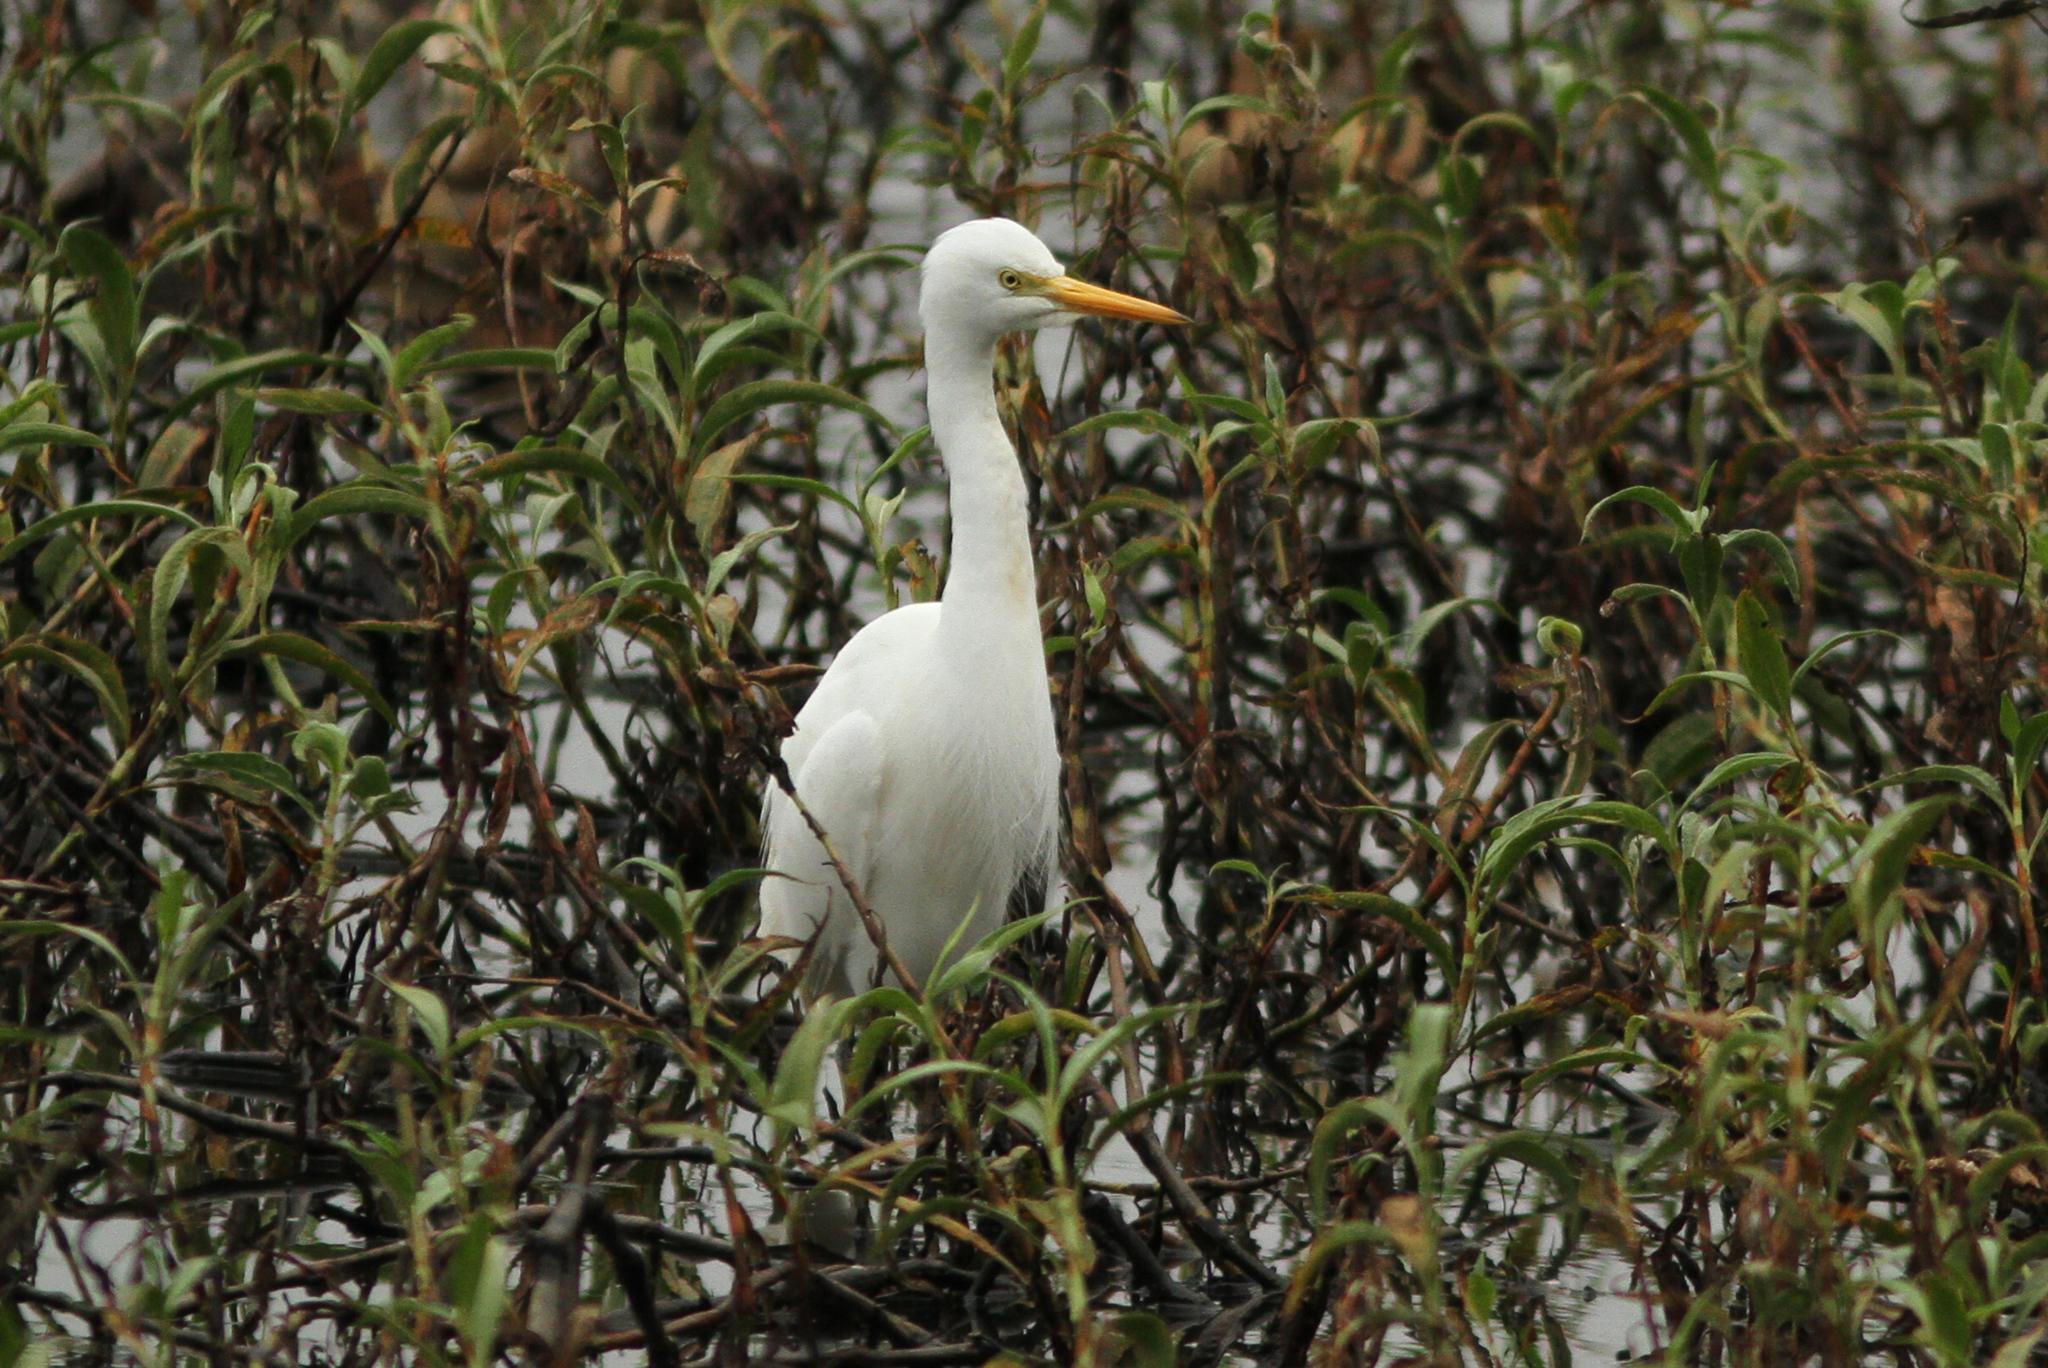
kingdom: Animalia
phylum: Chordata
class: Aves
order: Pelecaniformes
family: Ardeidae
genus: Egretta
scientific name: Egretta intermedia
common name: Intermediate egret
